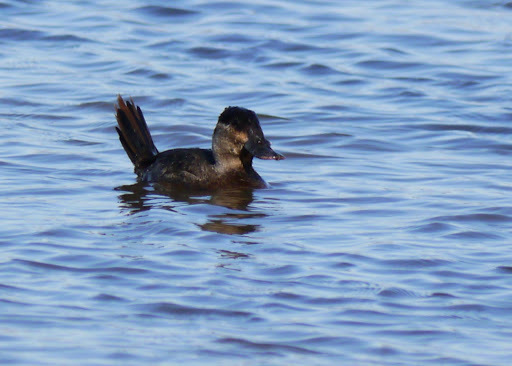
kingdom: Animalia
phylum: Chordata
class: Aves
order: Anseriformes
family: Anatidae
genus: Oxyura
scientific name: Oxyura jamaicensis
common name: Ruddy duck
